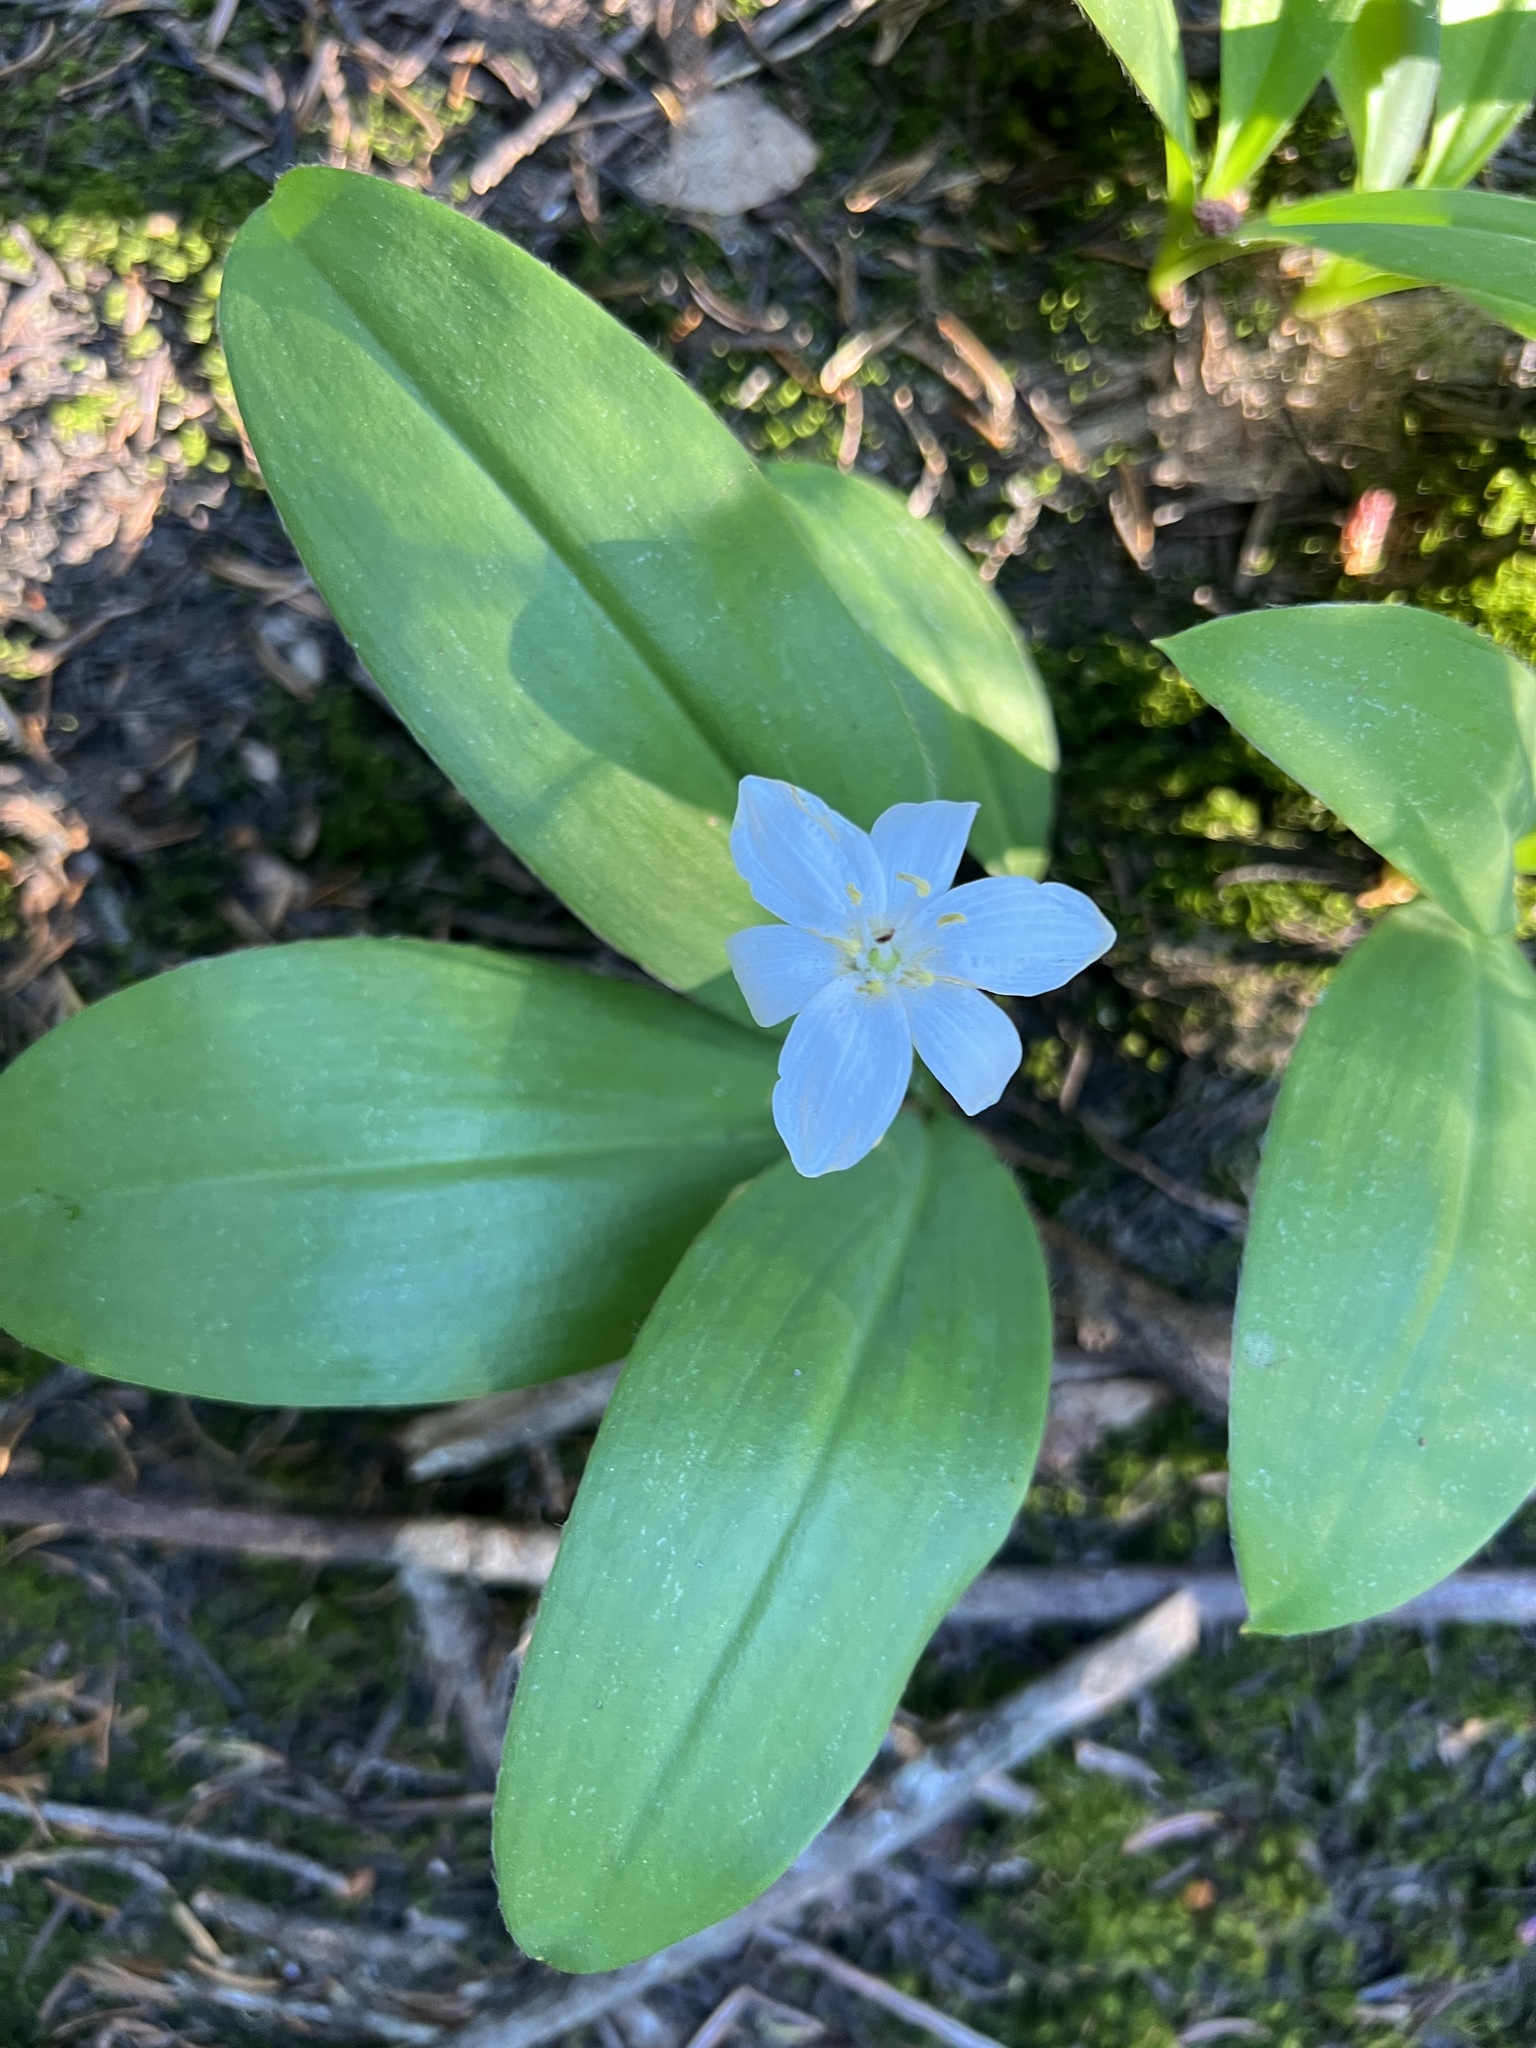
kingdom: Plantae
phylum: Tracheophyta
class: Liliopsida
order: Liliales
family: Liliaceae
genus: Clintonia
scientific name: Clintonia uniflora
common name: Queen's cup
